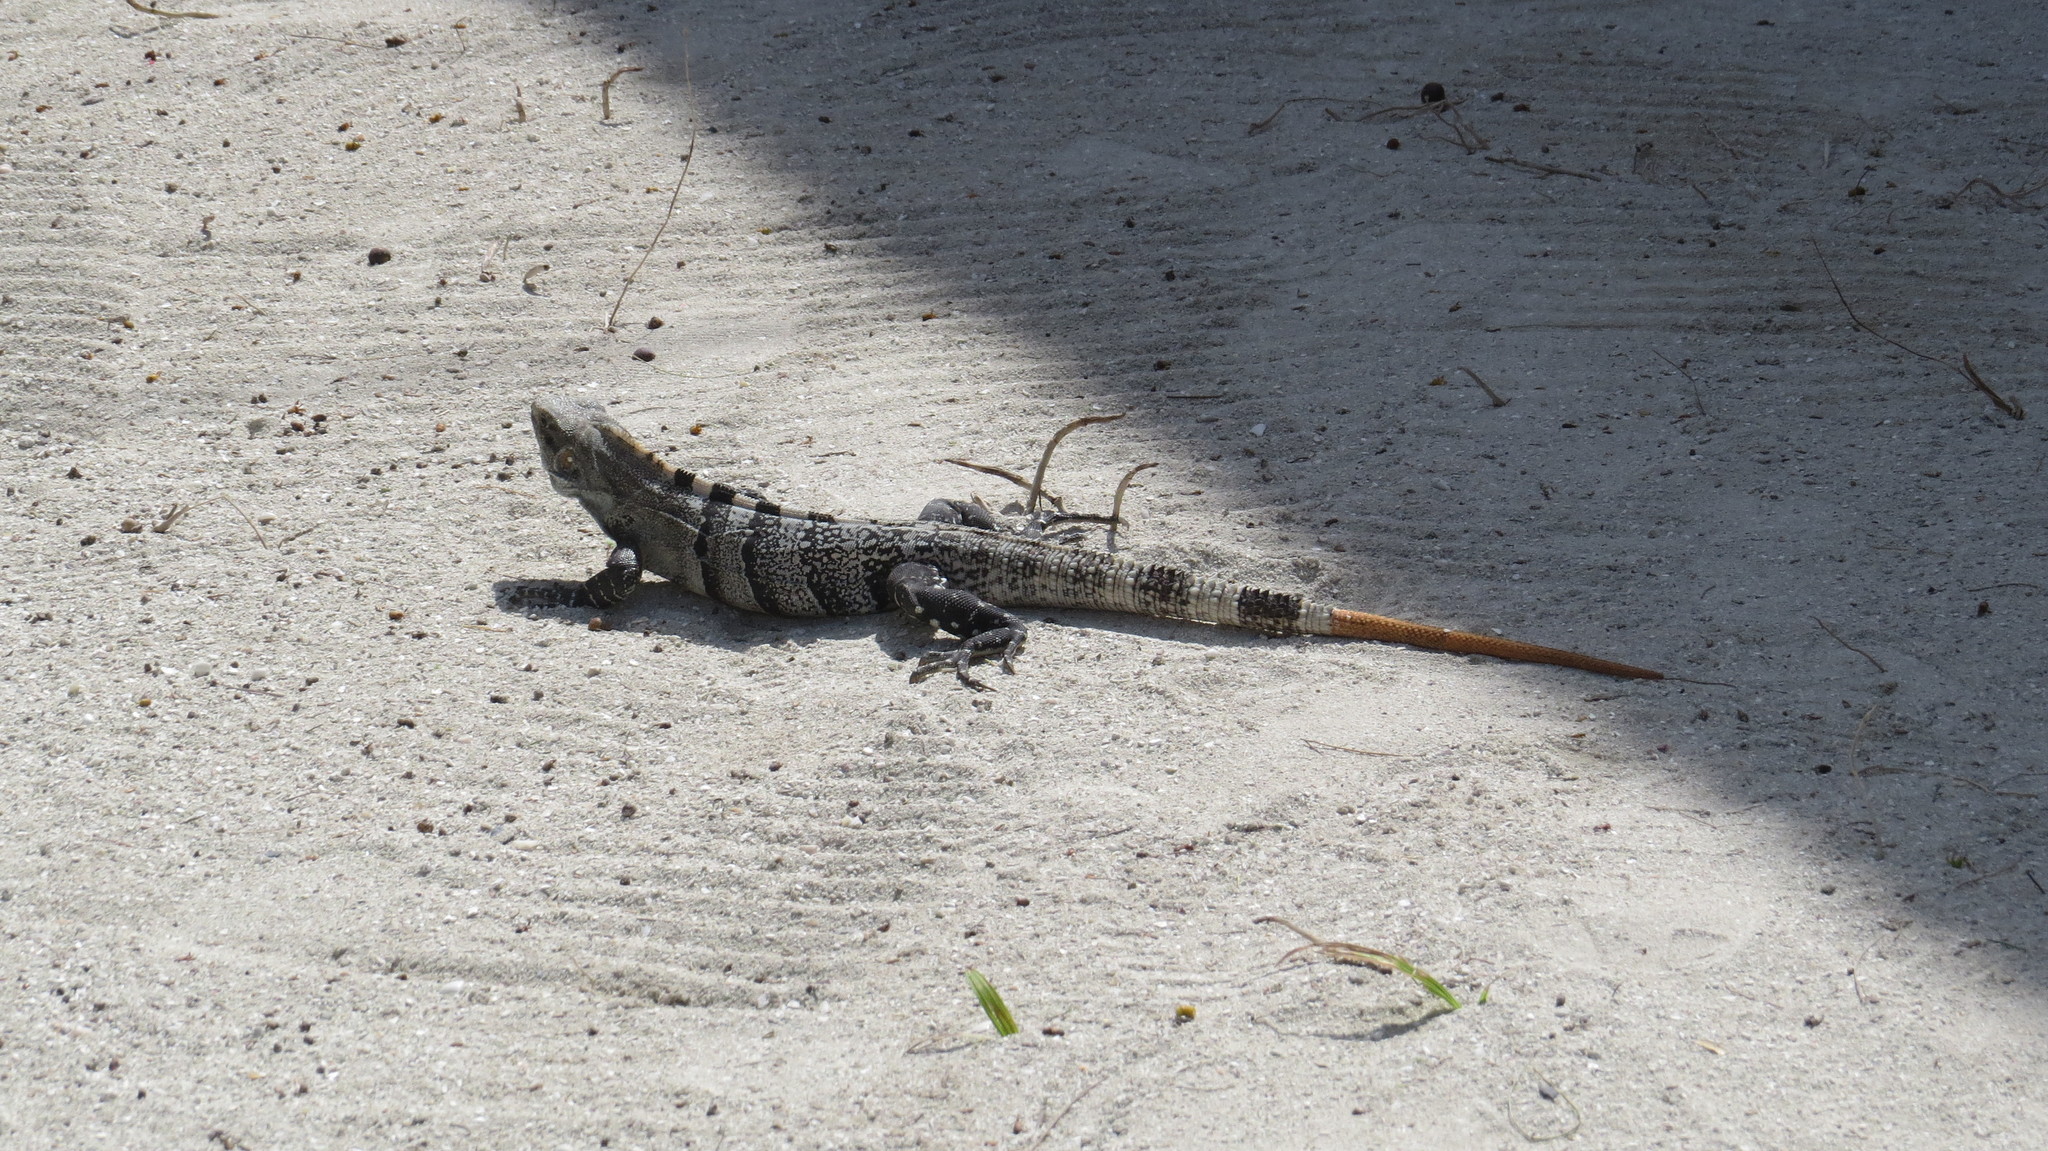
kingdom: Animalia
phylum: Chordata
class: Squamata
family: Iguanidae
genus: Ctenosaura
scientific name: Ctenosaura similis
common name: Black spiny-tailed iguana
